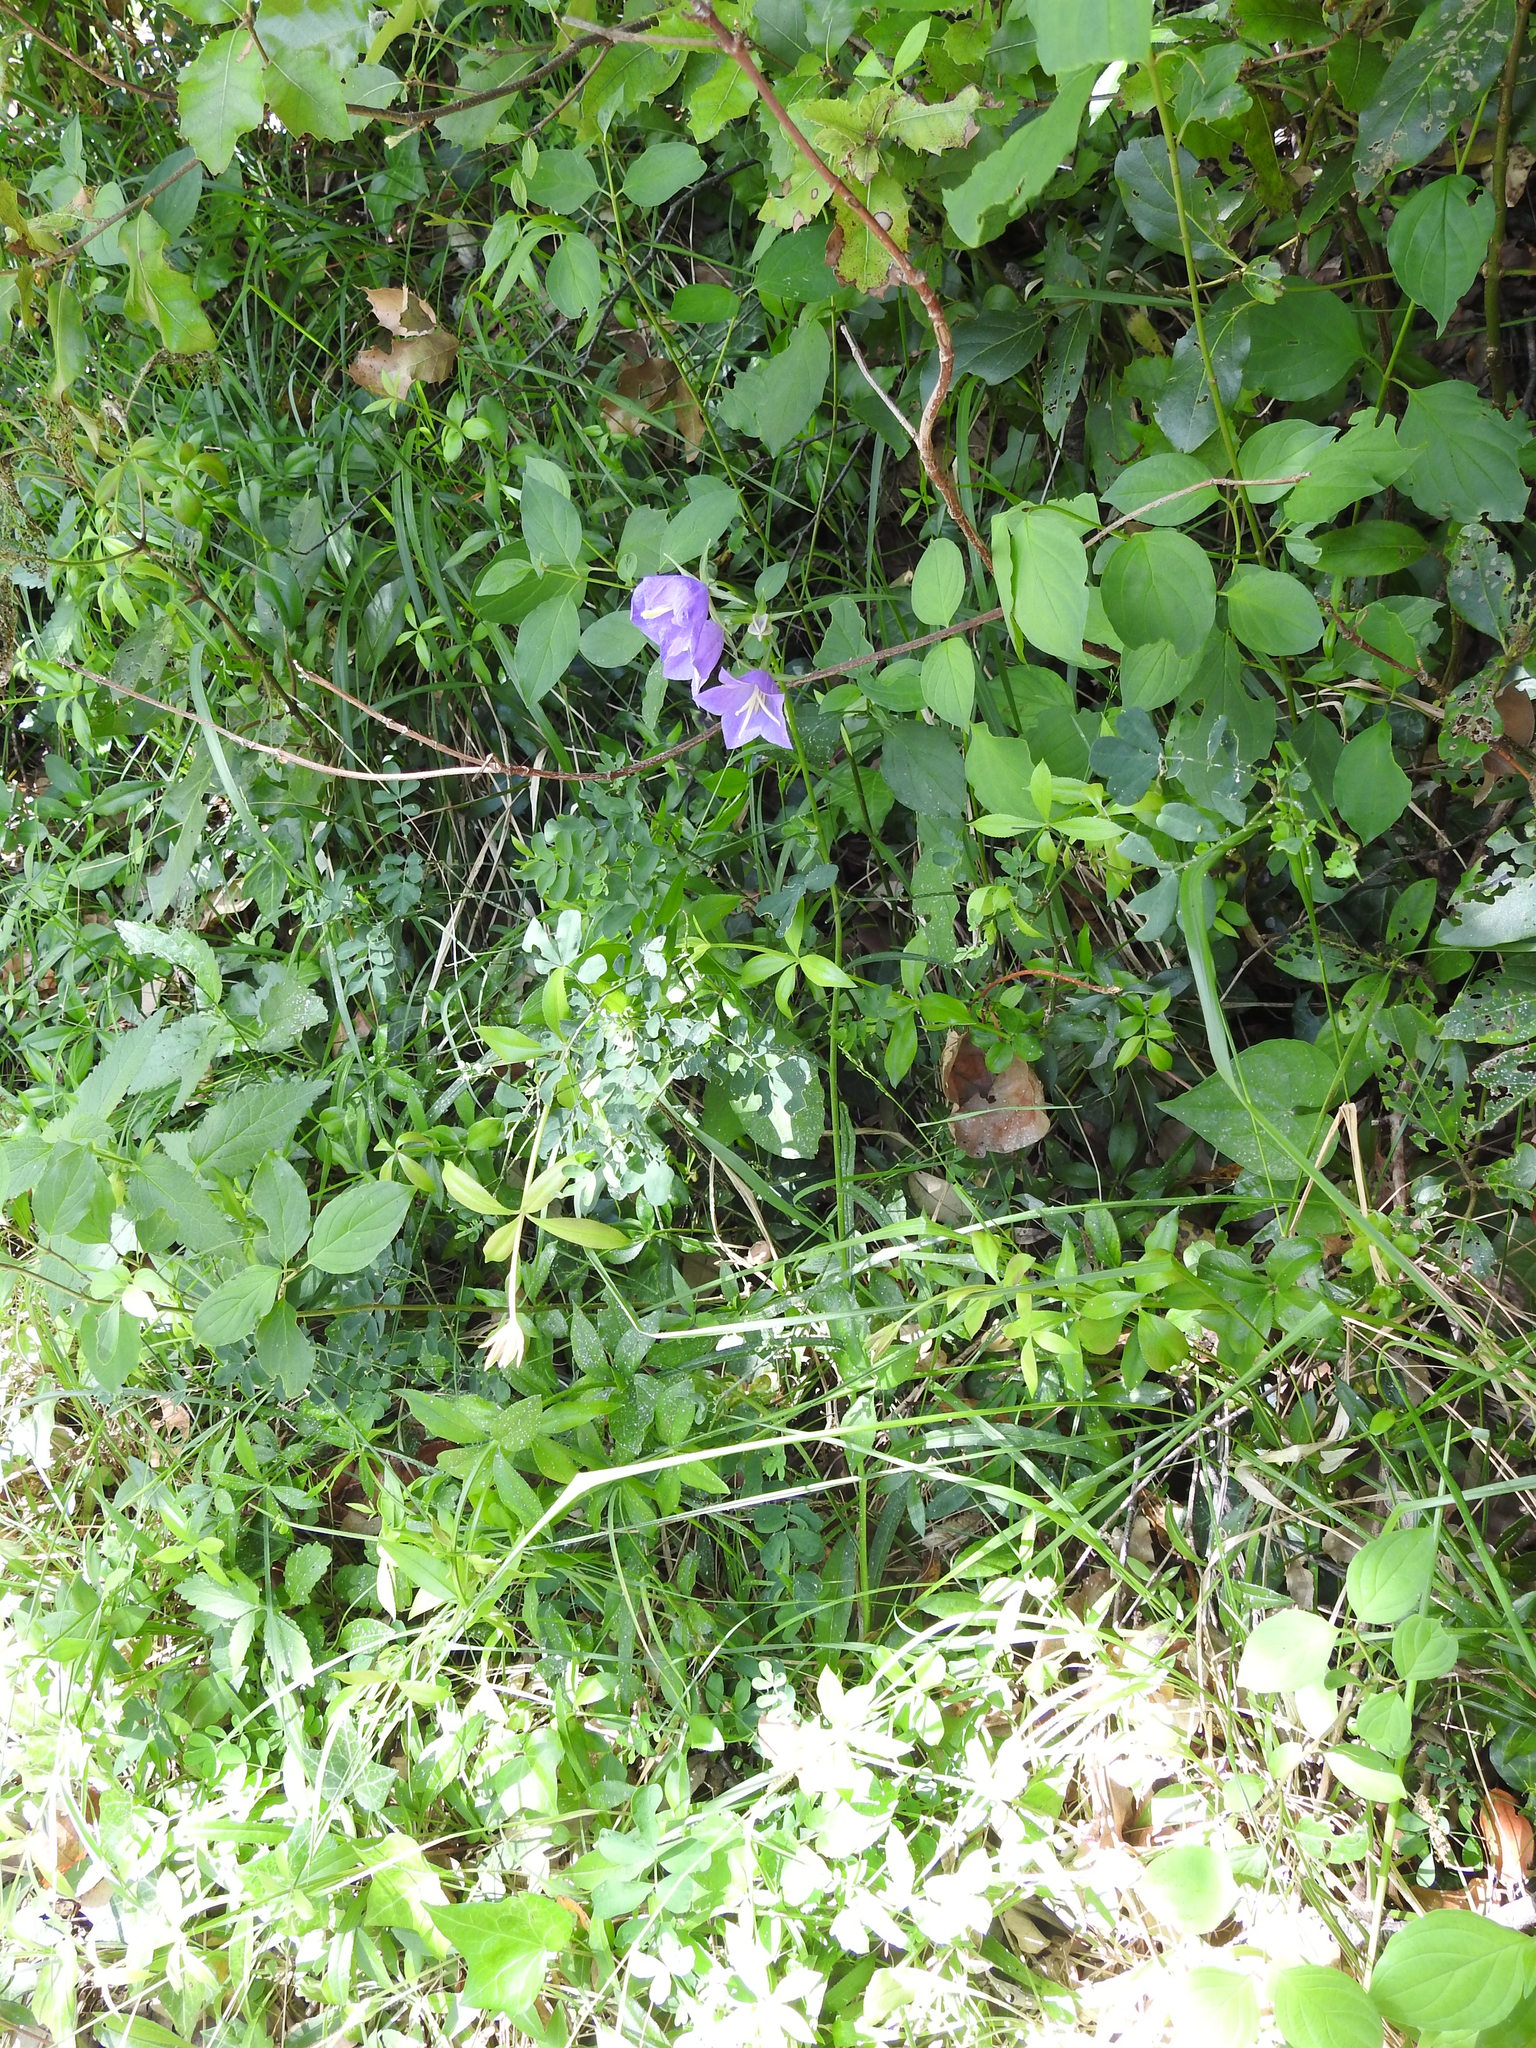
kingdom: Plantae
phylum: Tracheophyta
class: Magnoliopsida
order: Asterales
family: Campanulaceae
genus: Campanula
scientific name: Campanula persicifolia
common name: Peach-leaved bellflower
